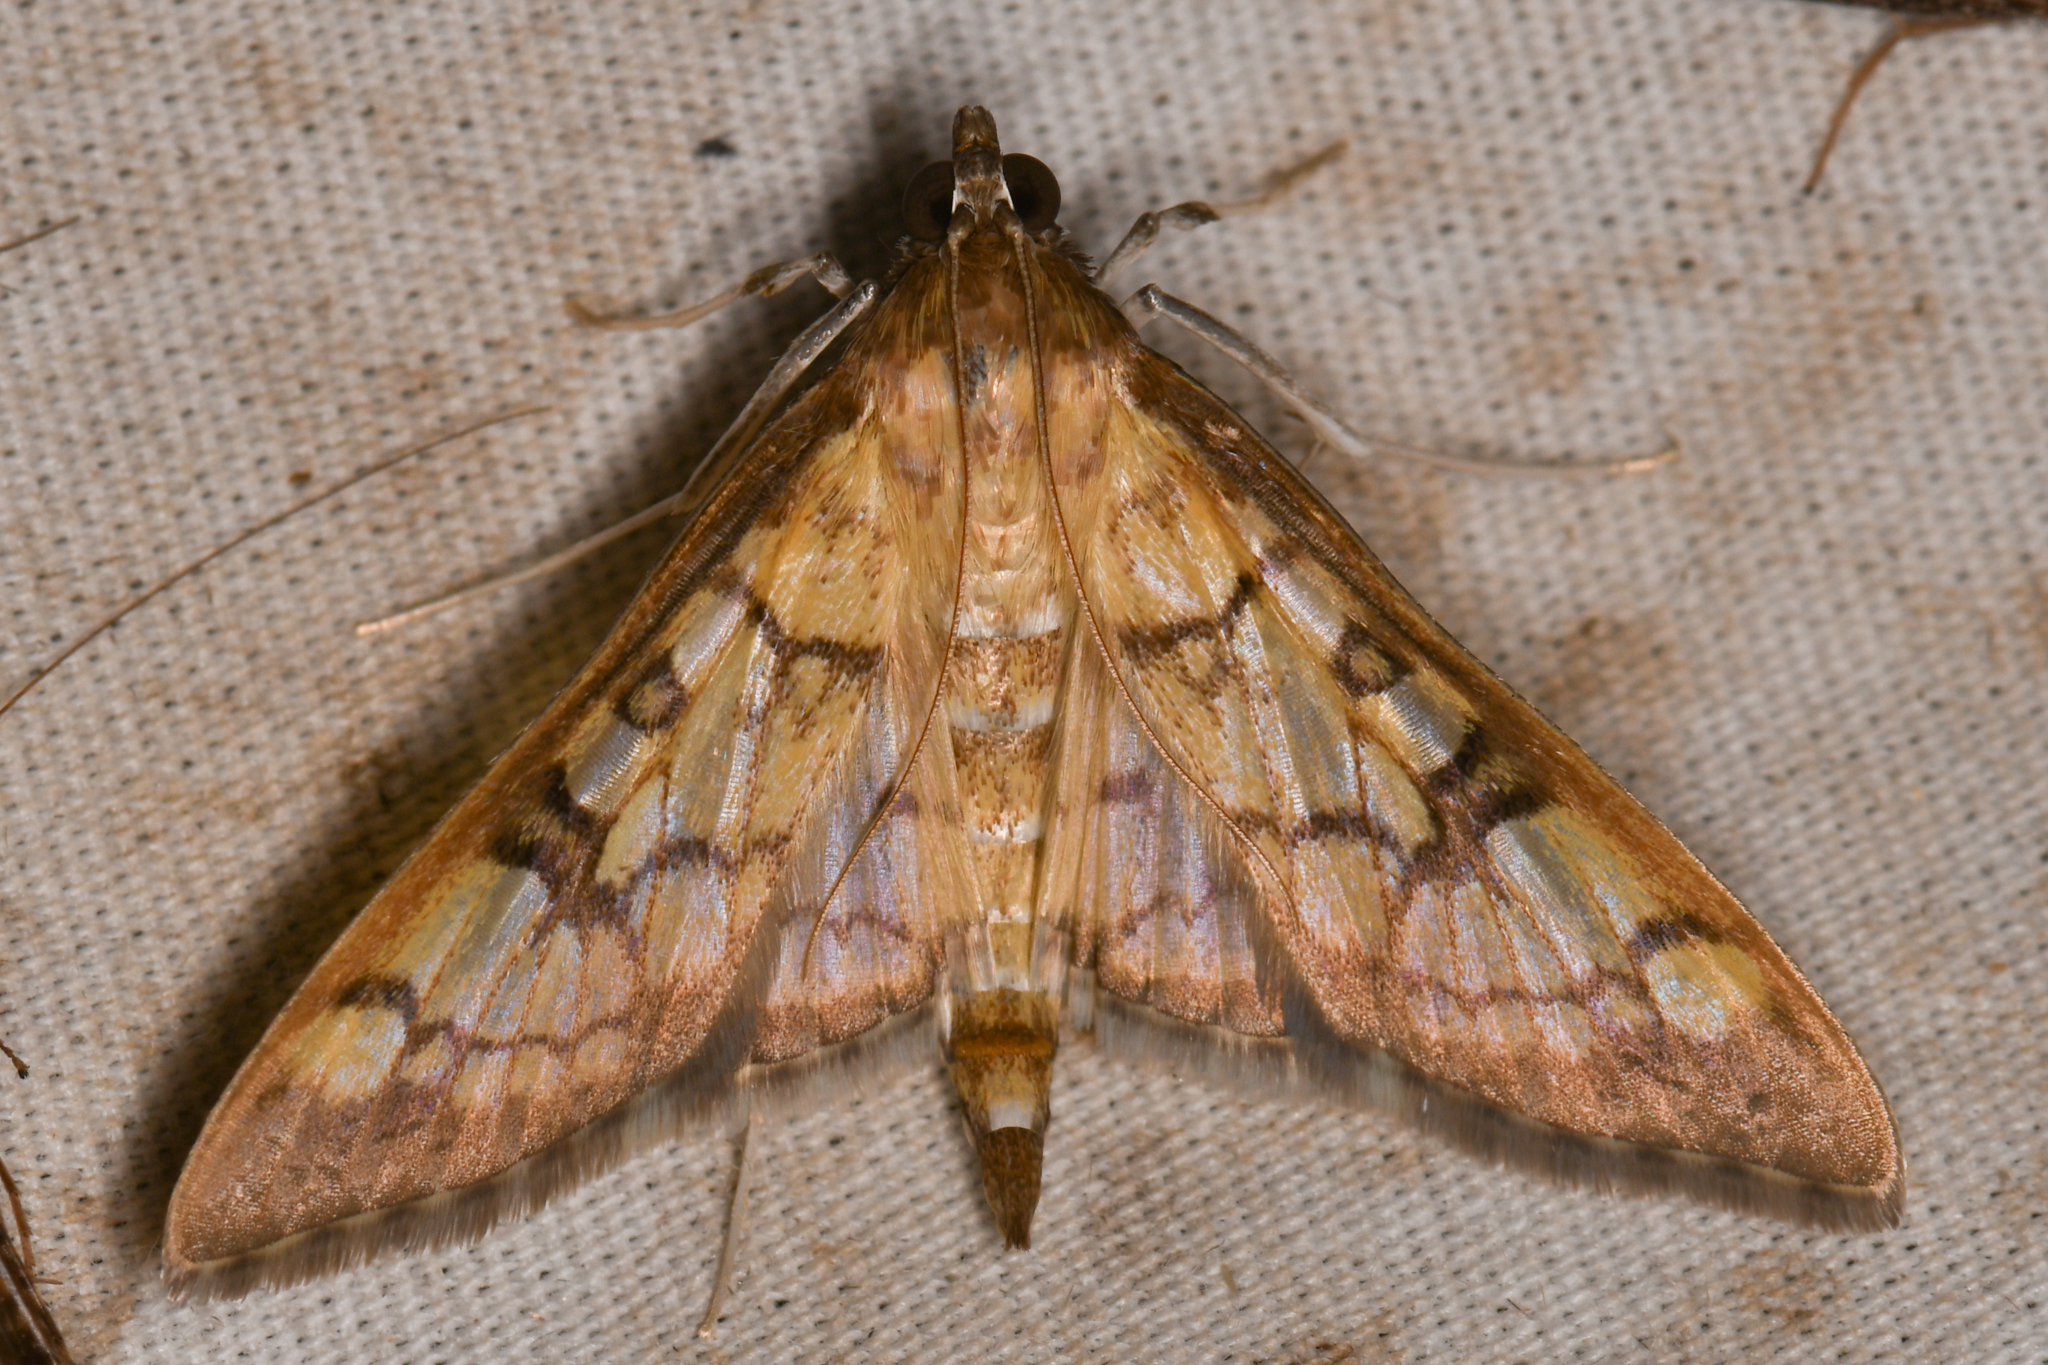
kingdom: Animalia
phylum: Arthropoda
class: Insecta
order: Lepidoptera
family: Crambidae
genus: Mimorista
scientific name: Mimorista subcostalis
